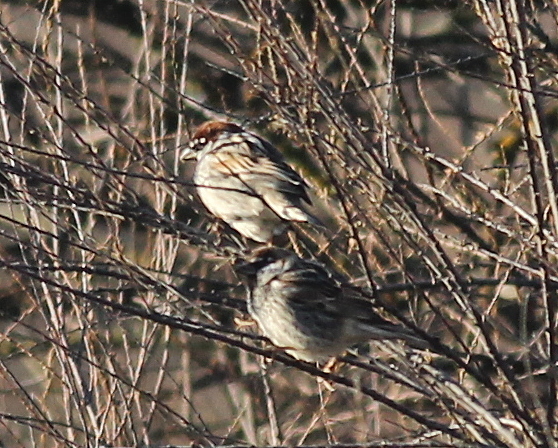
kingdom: Animalia
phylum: Chordata
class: Aves
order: Passeriformes
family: Passeridae
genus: Passer
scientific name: Passer hispaniolensis
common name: Spanish sparrow
